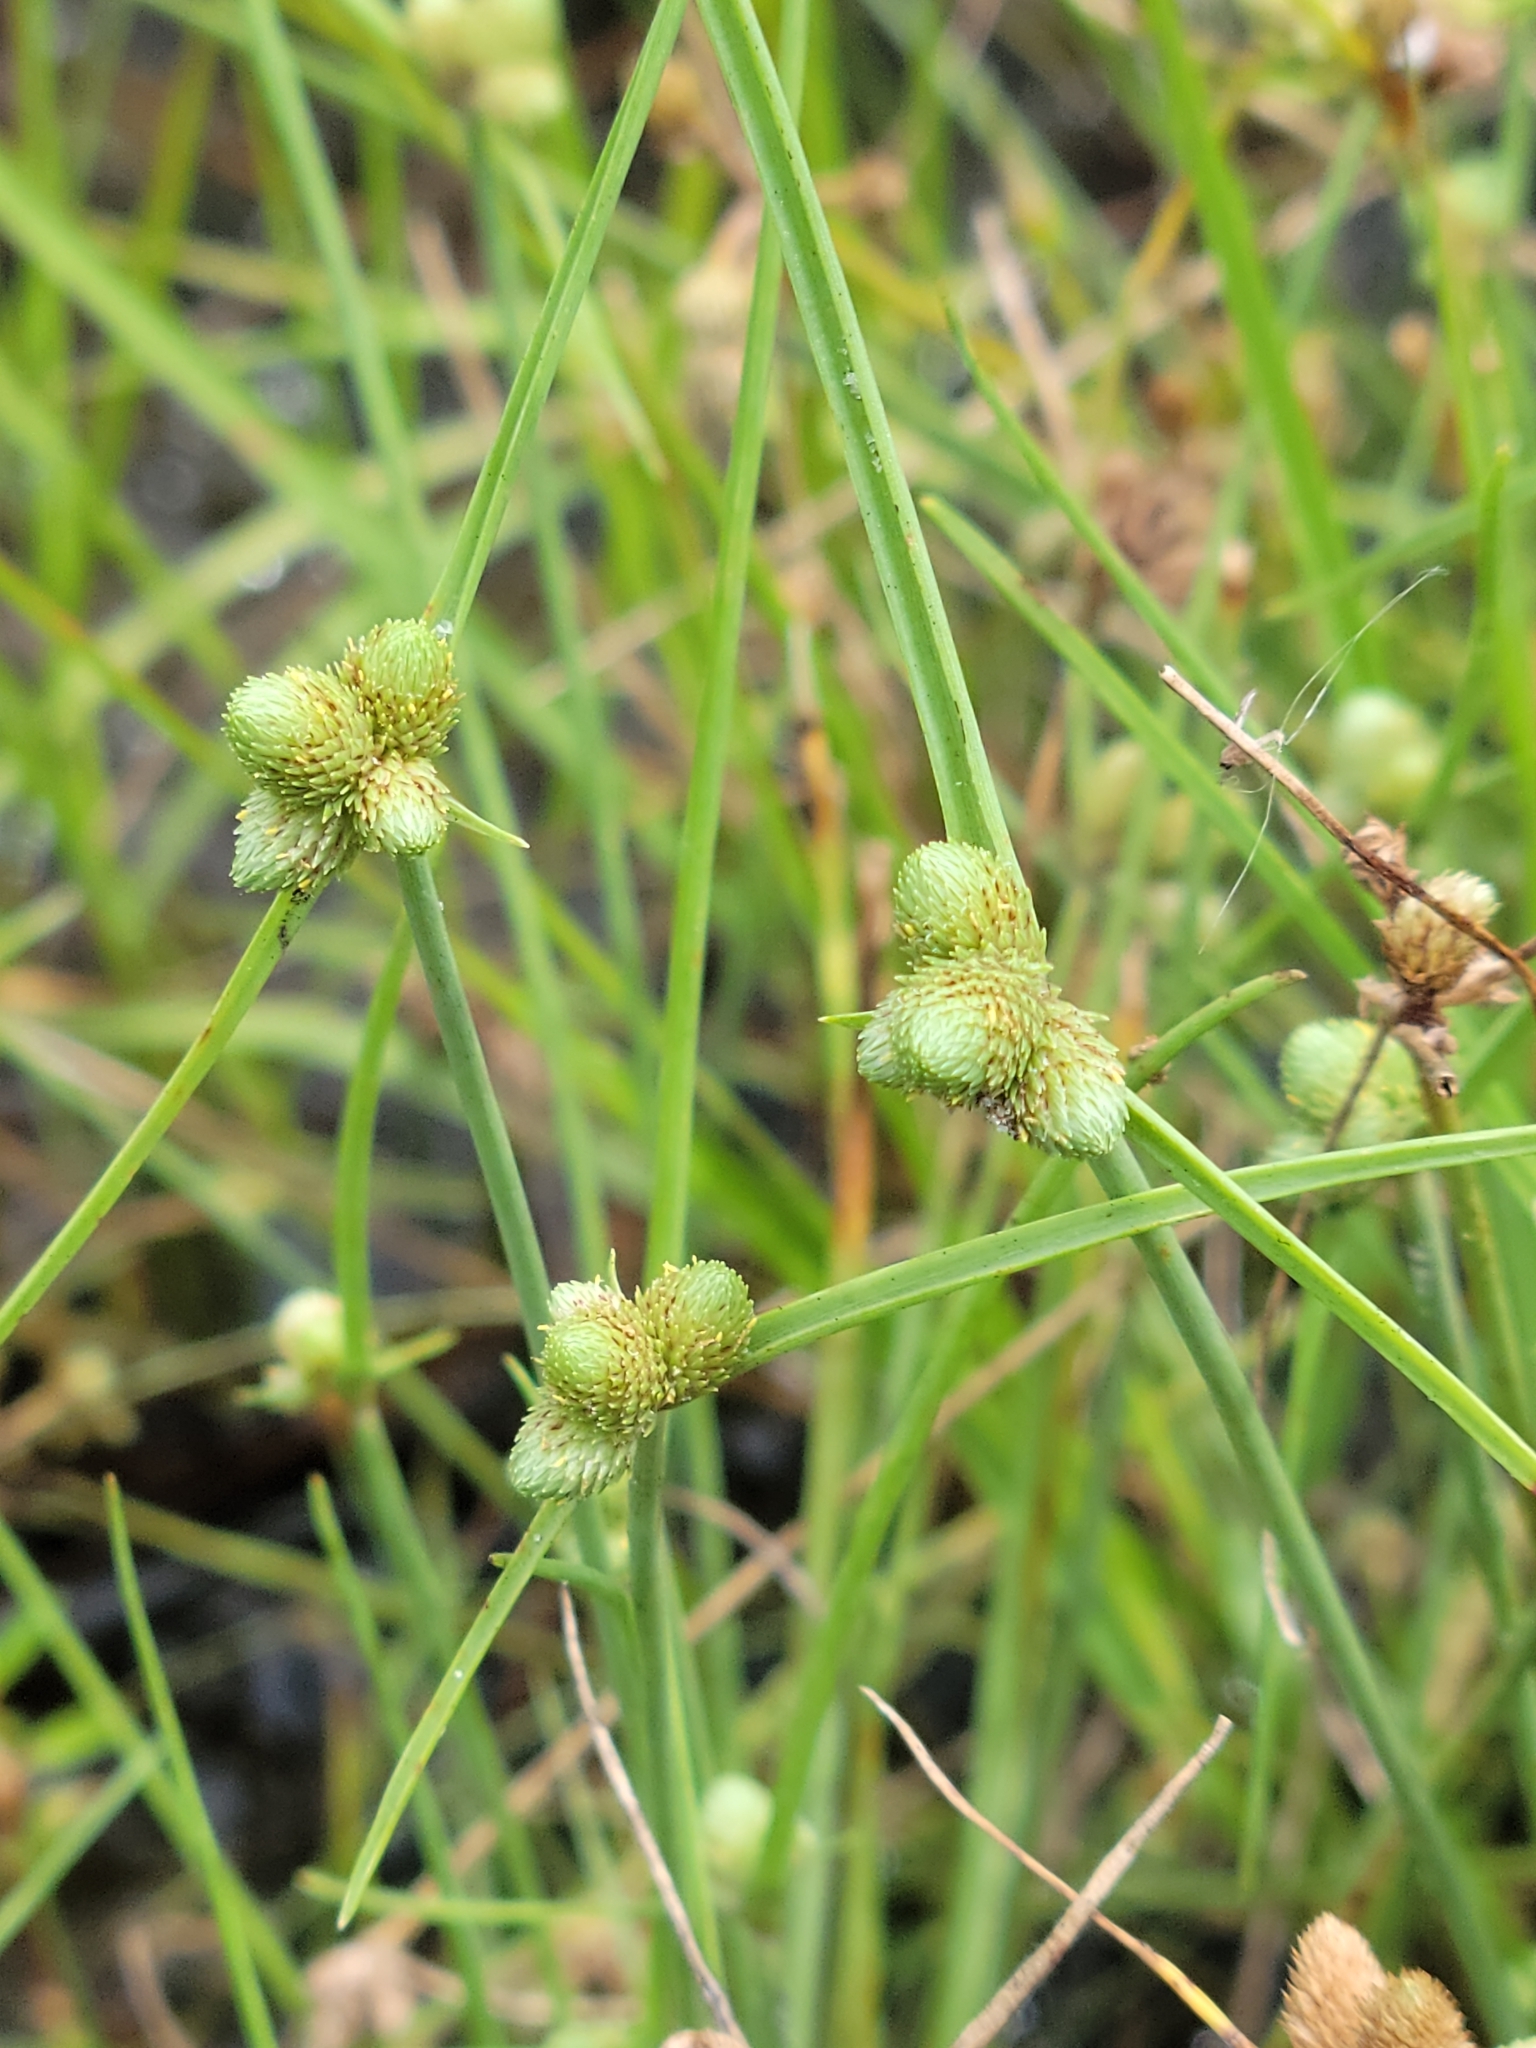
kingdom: Plantae
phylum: Tracheophyta
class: Liliopsida
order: Poales
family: Cyperaceae
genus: Cyperus
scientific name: Cyperus neotropicalis
